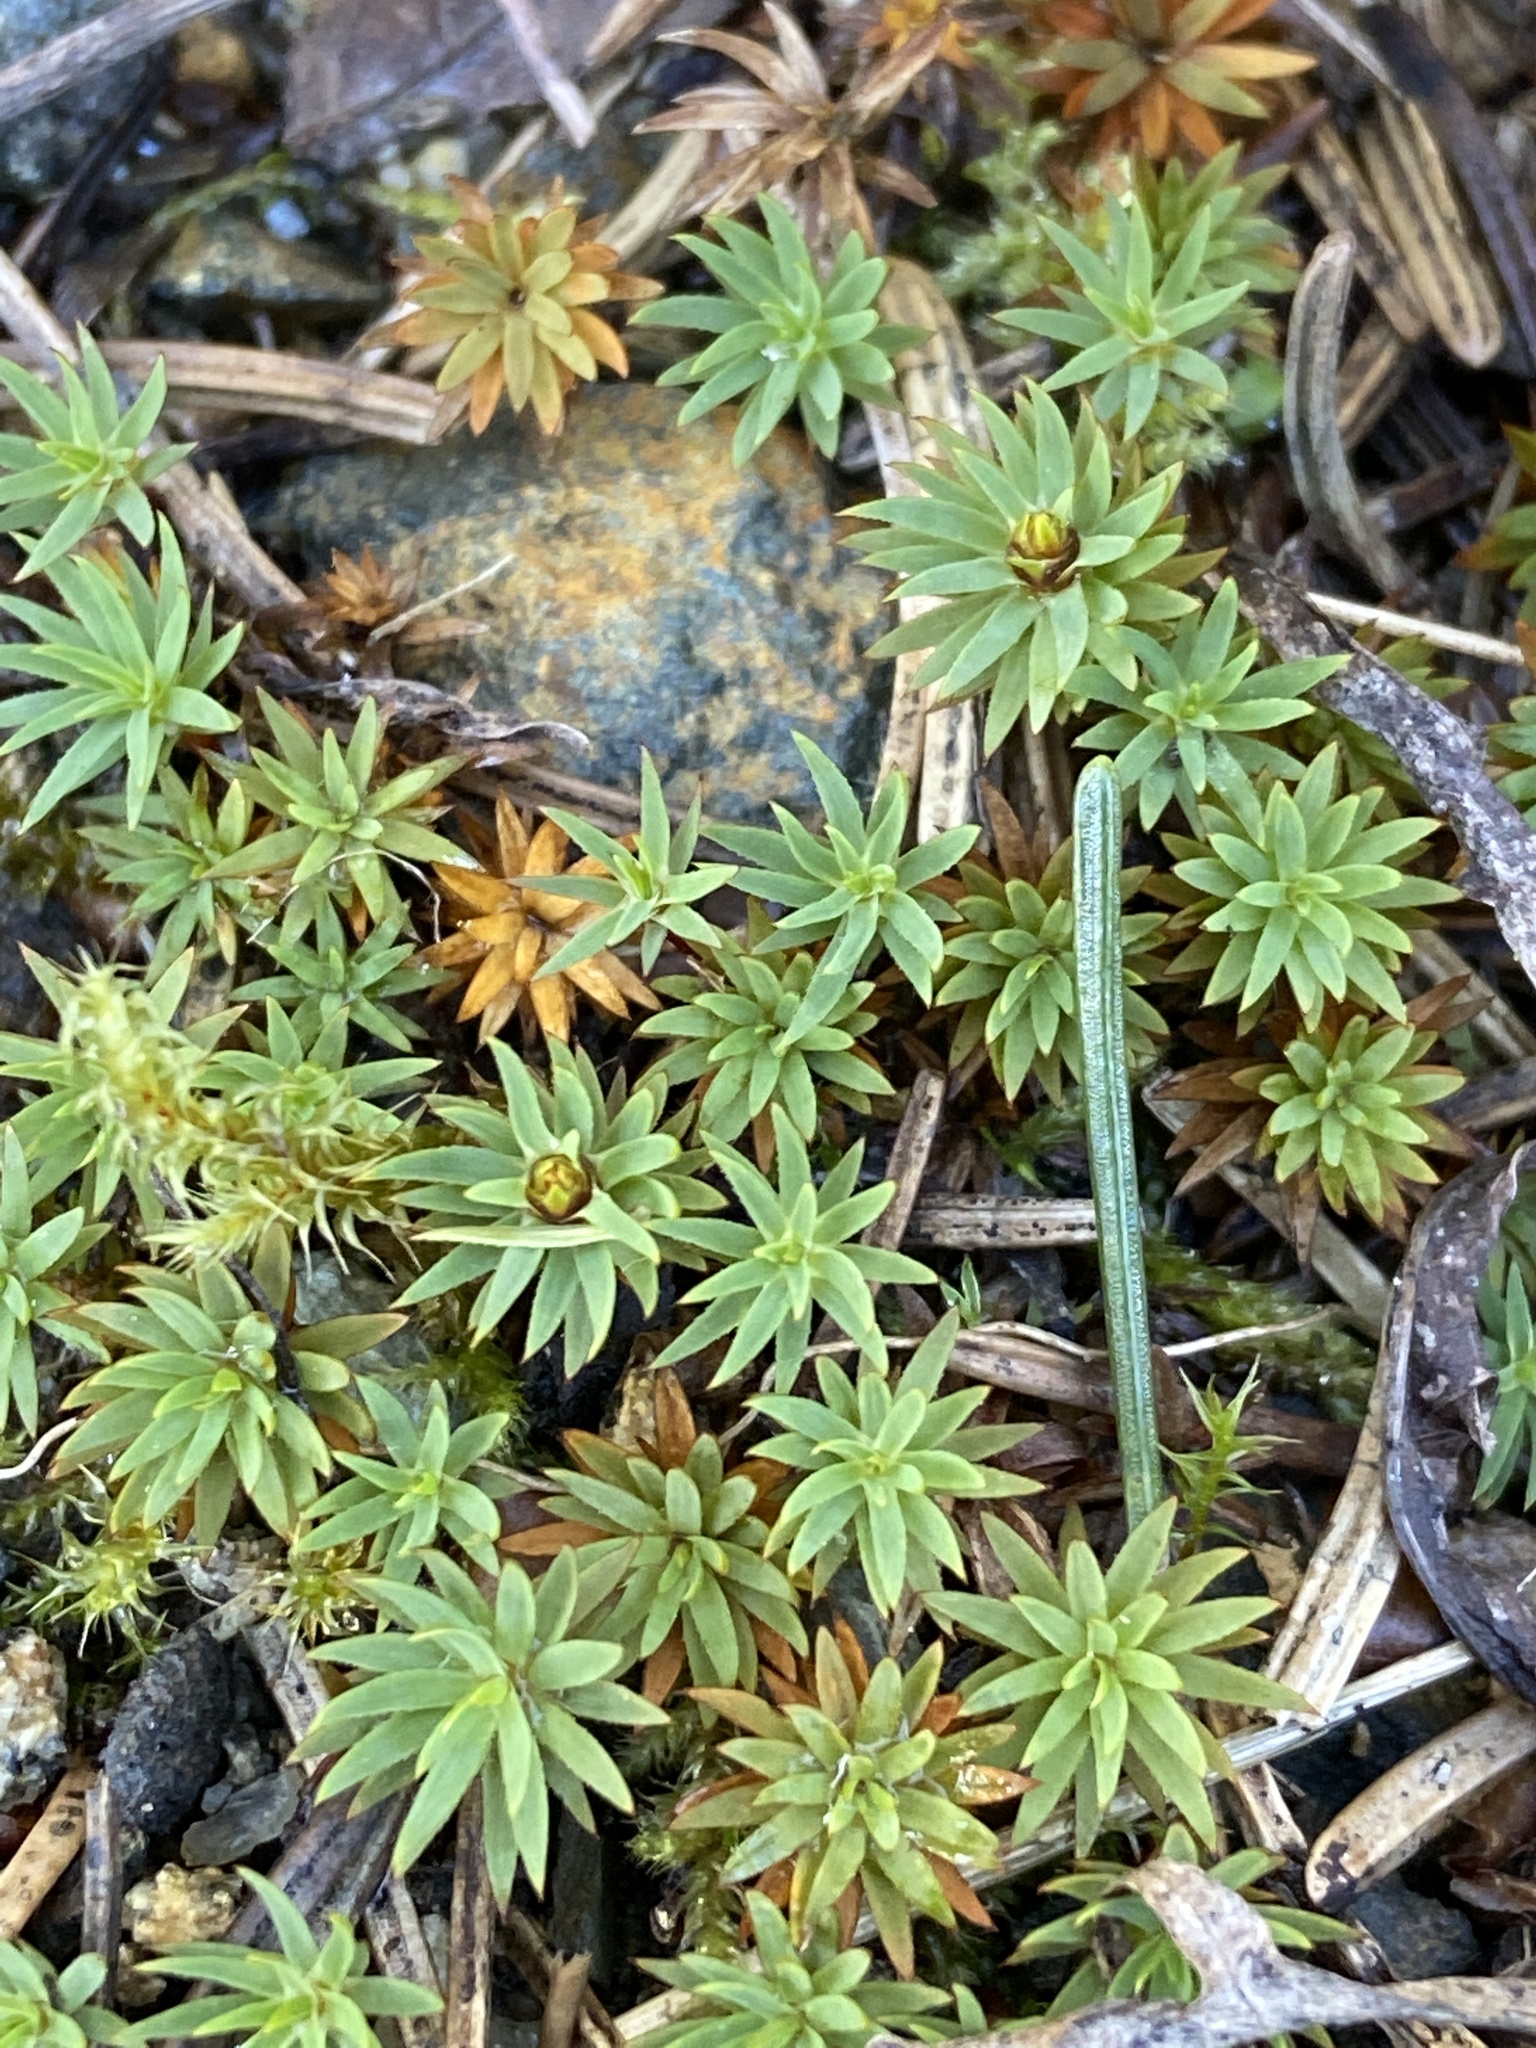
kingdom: Plantae
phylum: Bryophyta
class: Polytrichopsida
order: Polytrichales
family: Polytrichaceae
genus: Pogonatum
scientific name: Pogonatum urnigerum
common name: Urn hair moss
